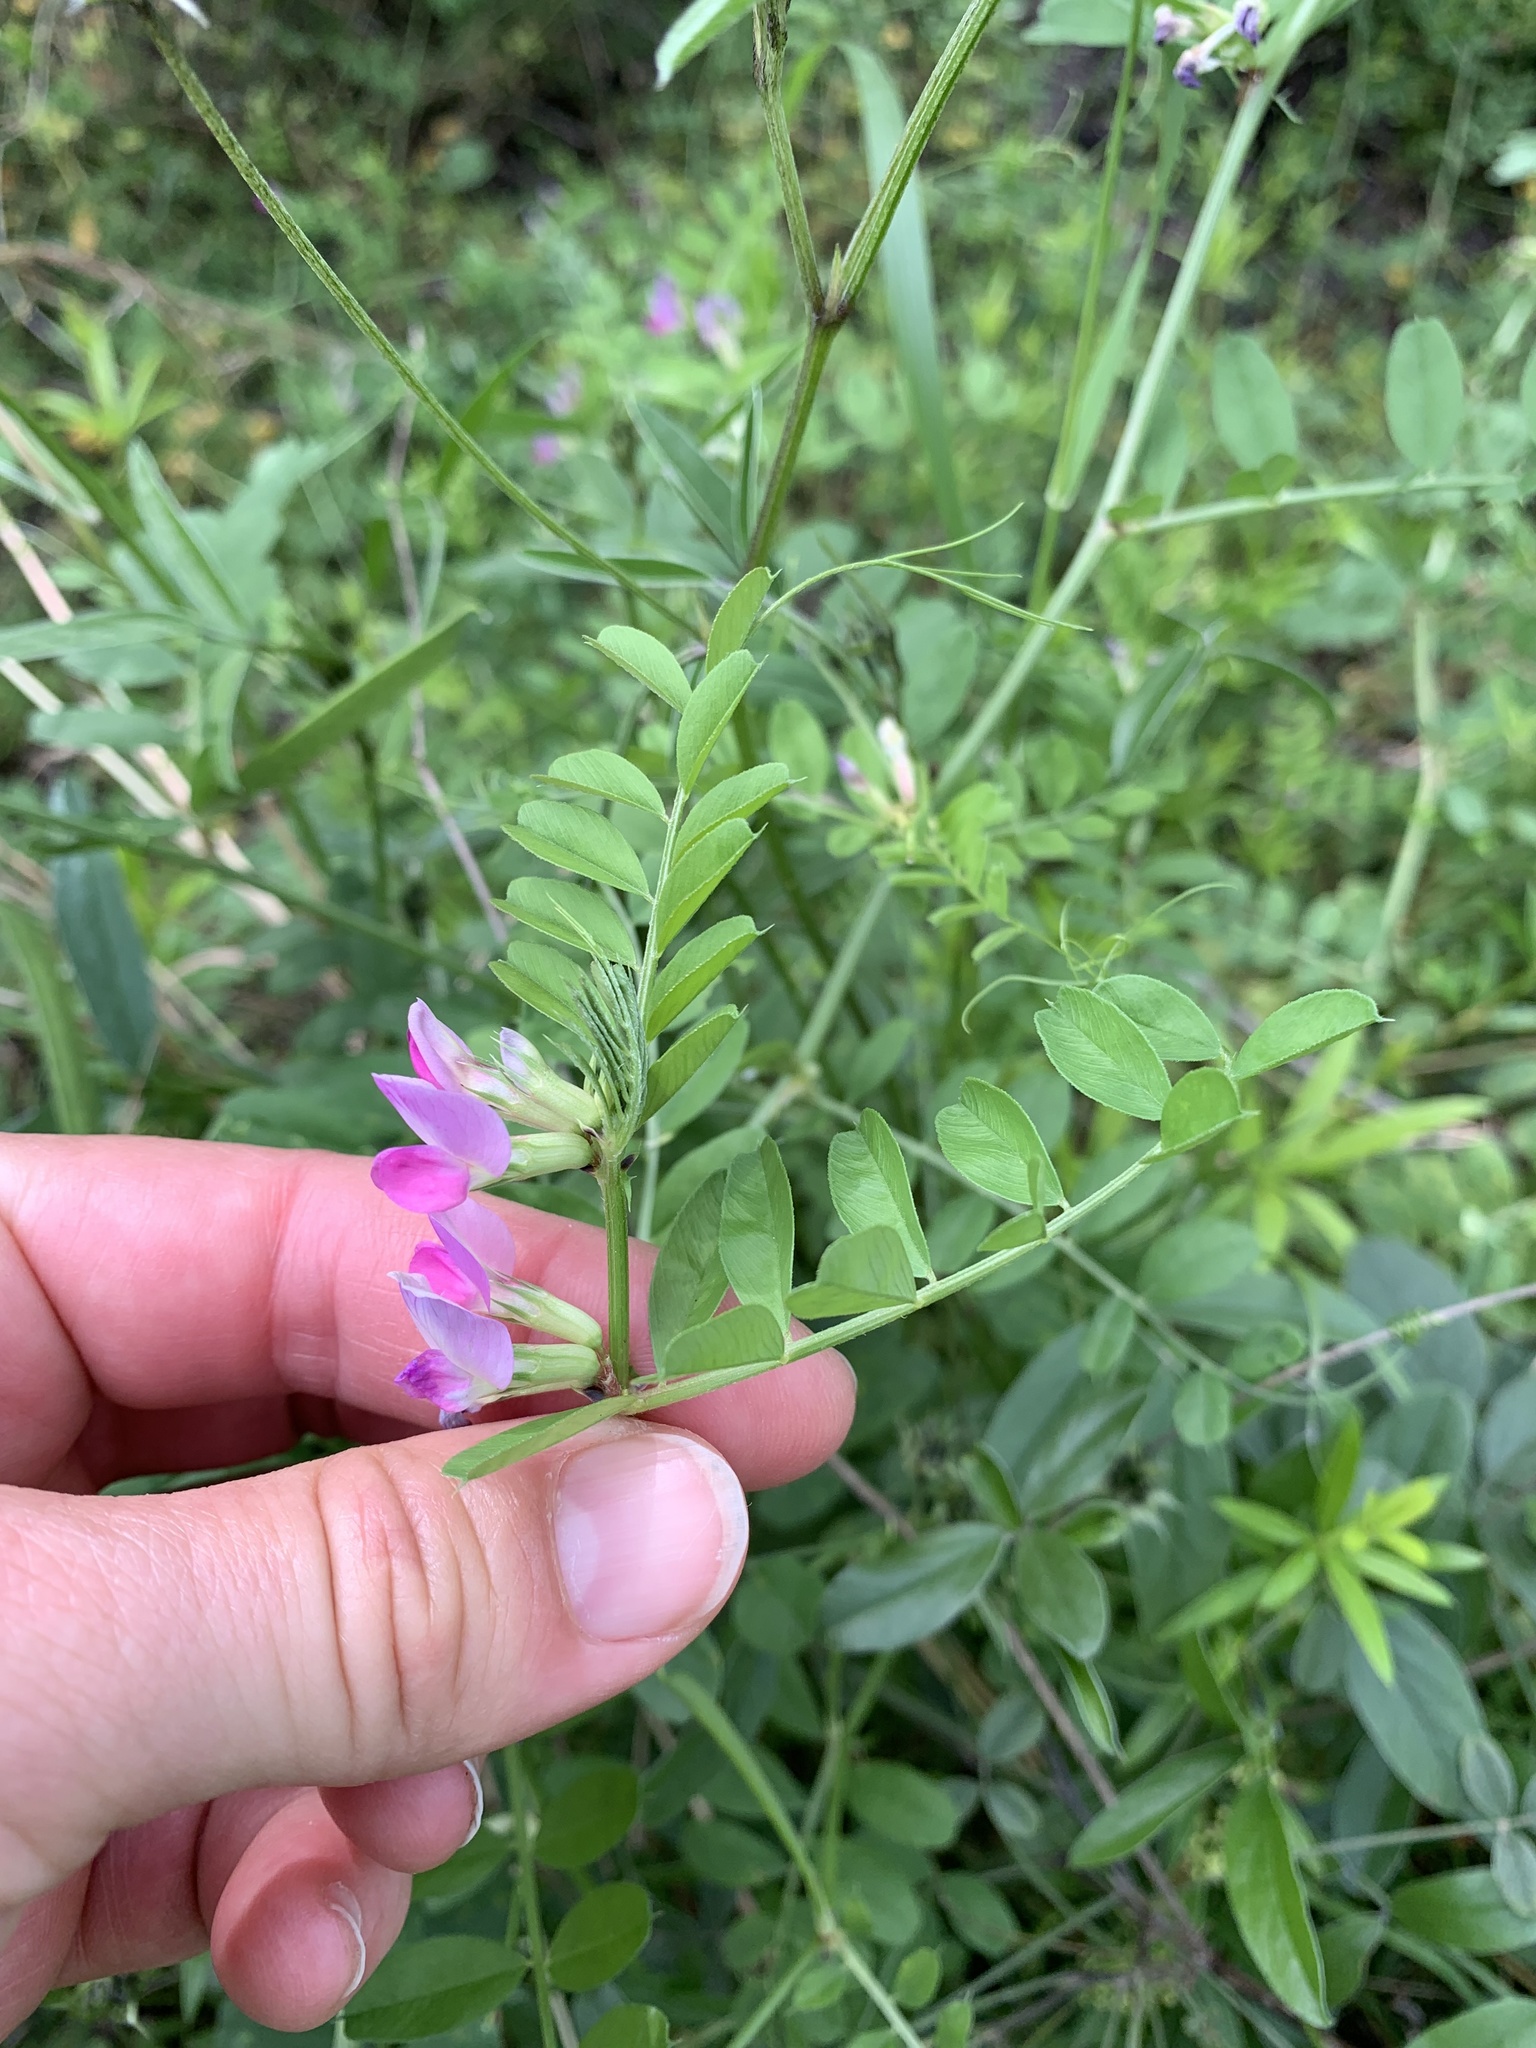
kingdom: Plantae
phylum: Tracheophyta
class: Magnoliopsida
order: Fabales
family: Fabaceae
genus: Vicia
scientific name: Vicia sativa
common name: Garden vetch
